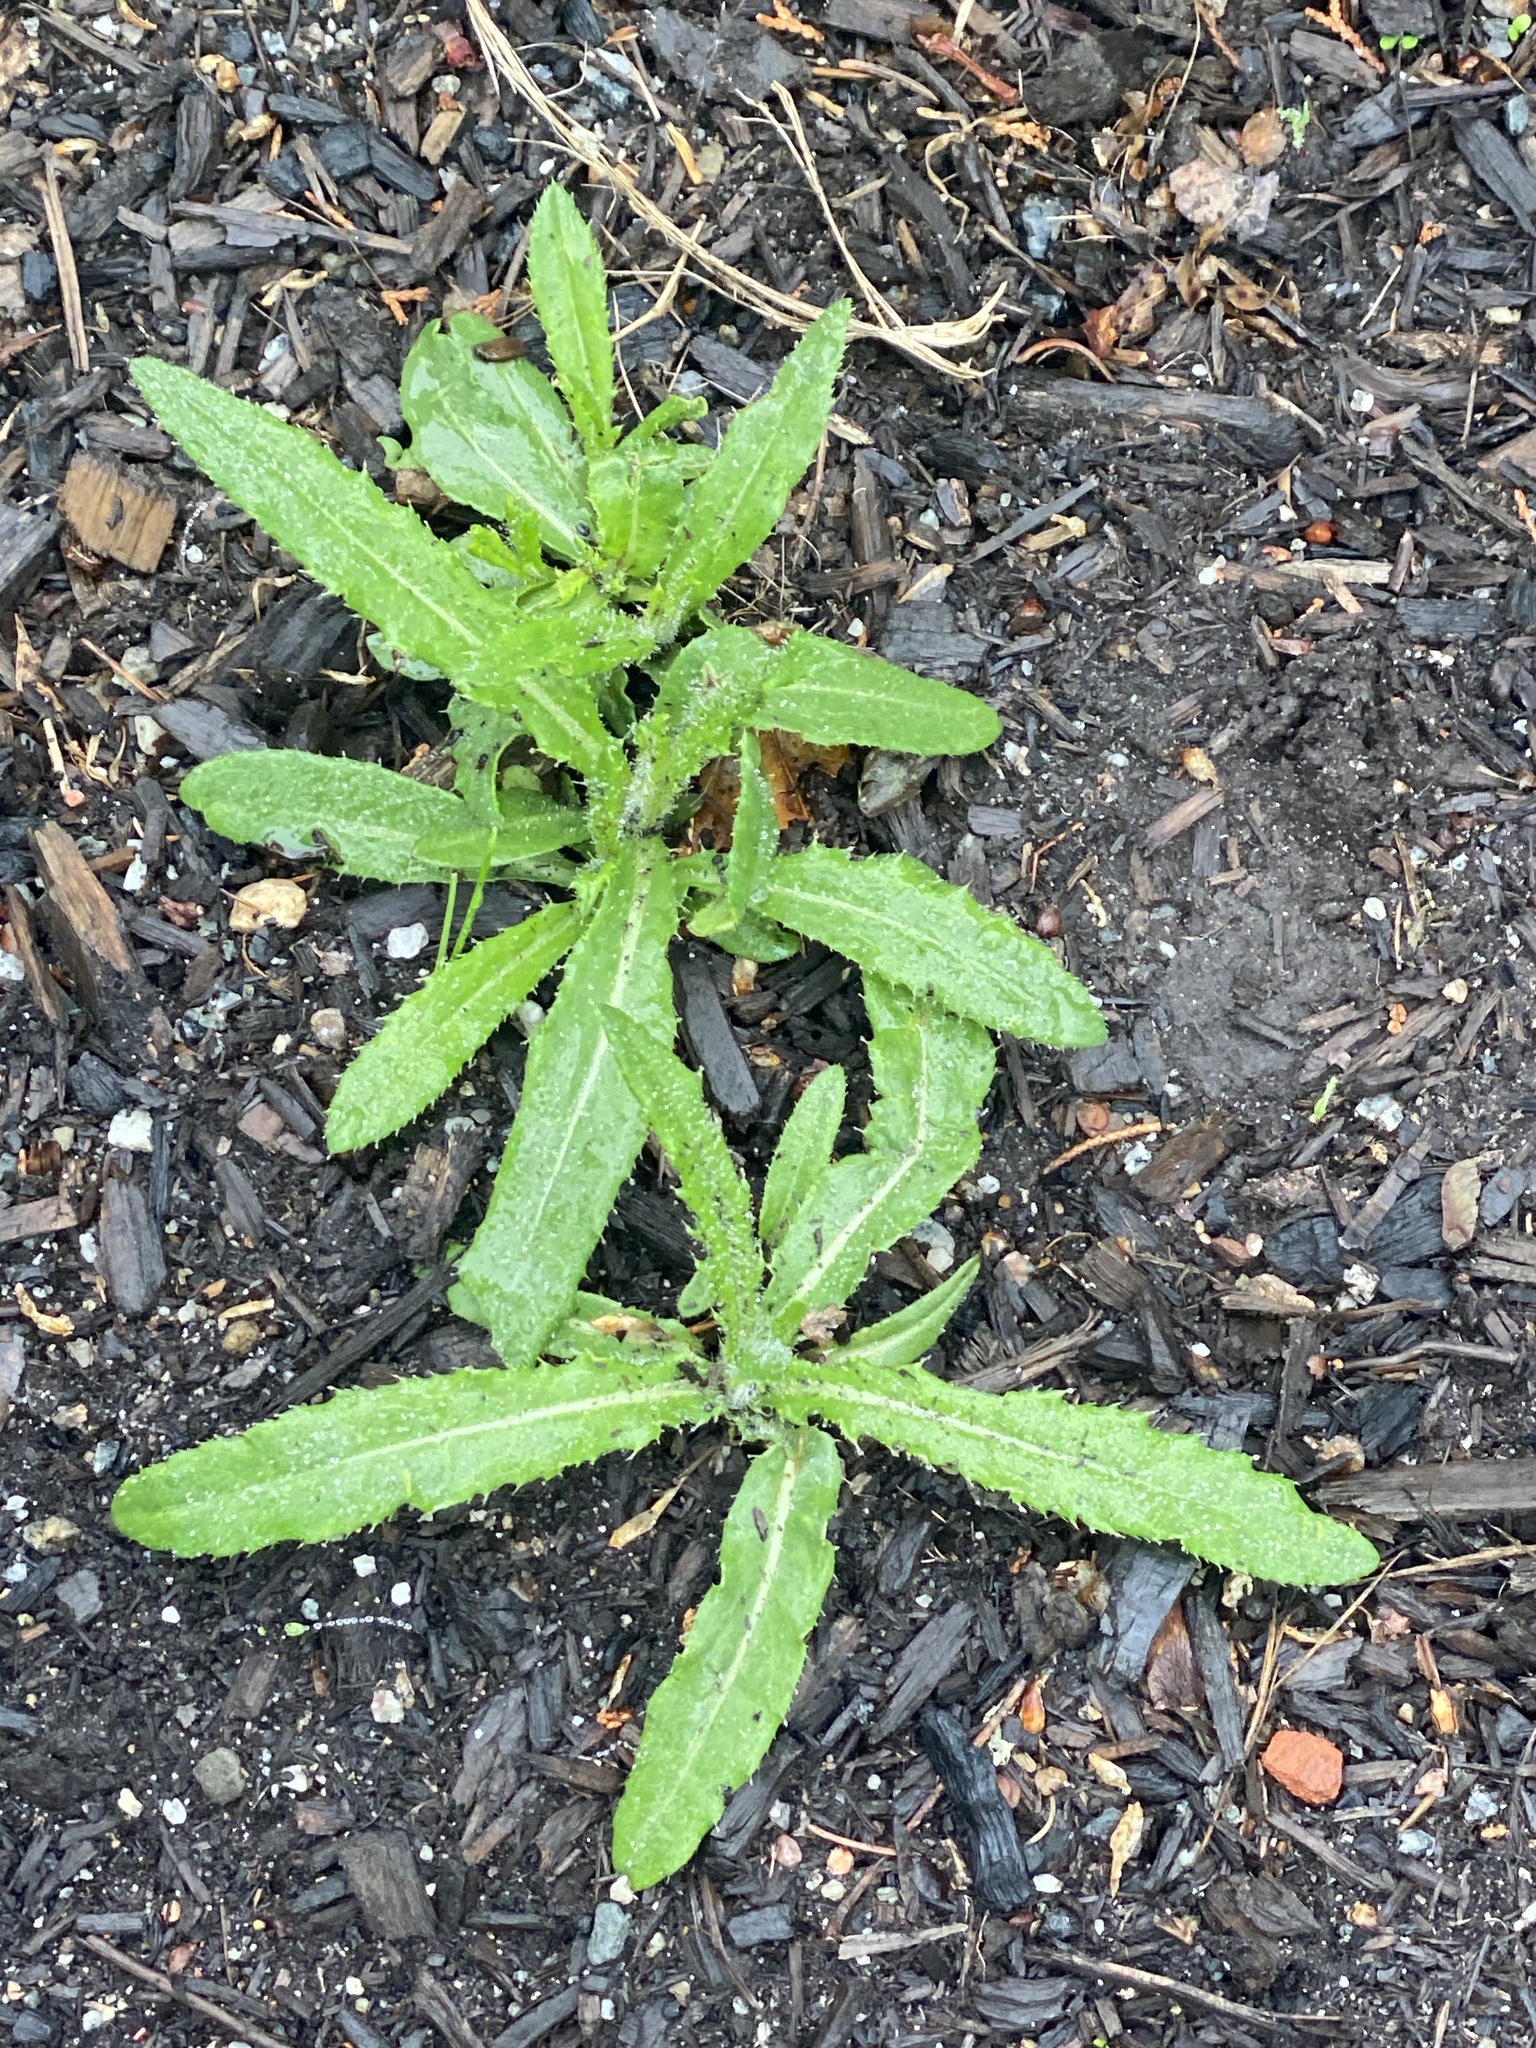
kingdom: Plantae
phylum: Tracheophyta
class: Magnoliopsida
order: Asterales
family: Asteraceae
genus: Cirsium
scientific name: Cirsium arvense
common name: Creeping thistle
